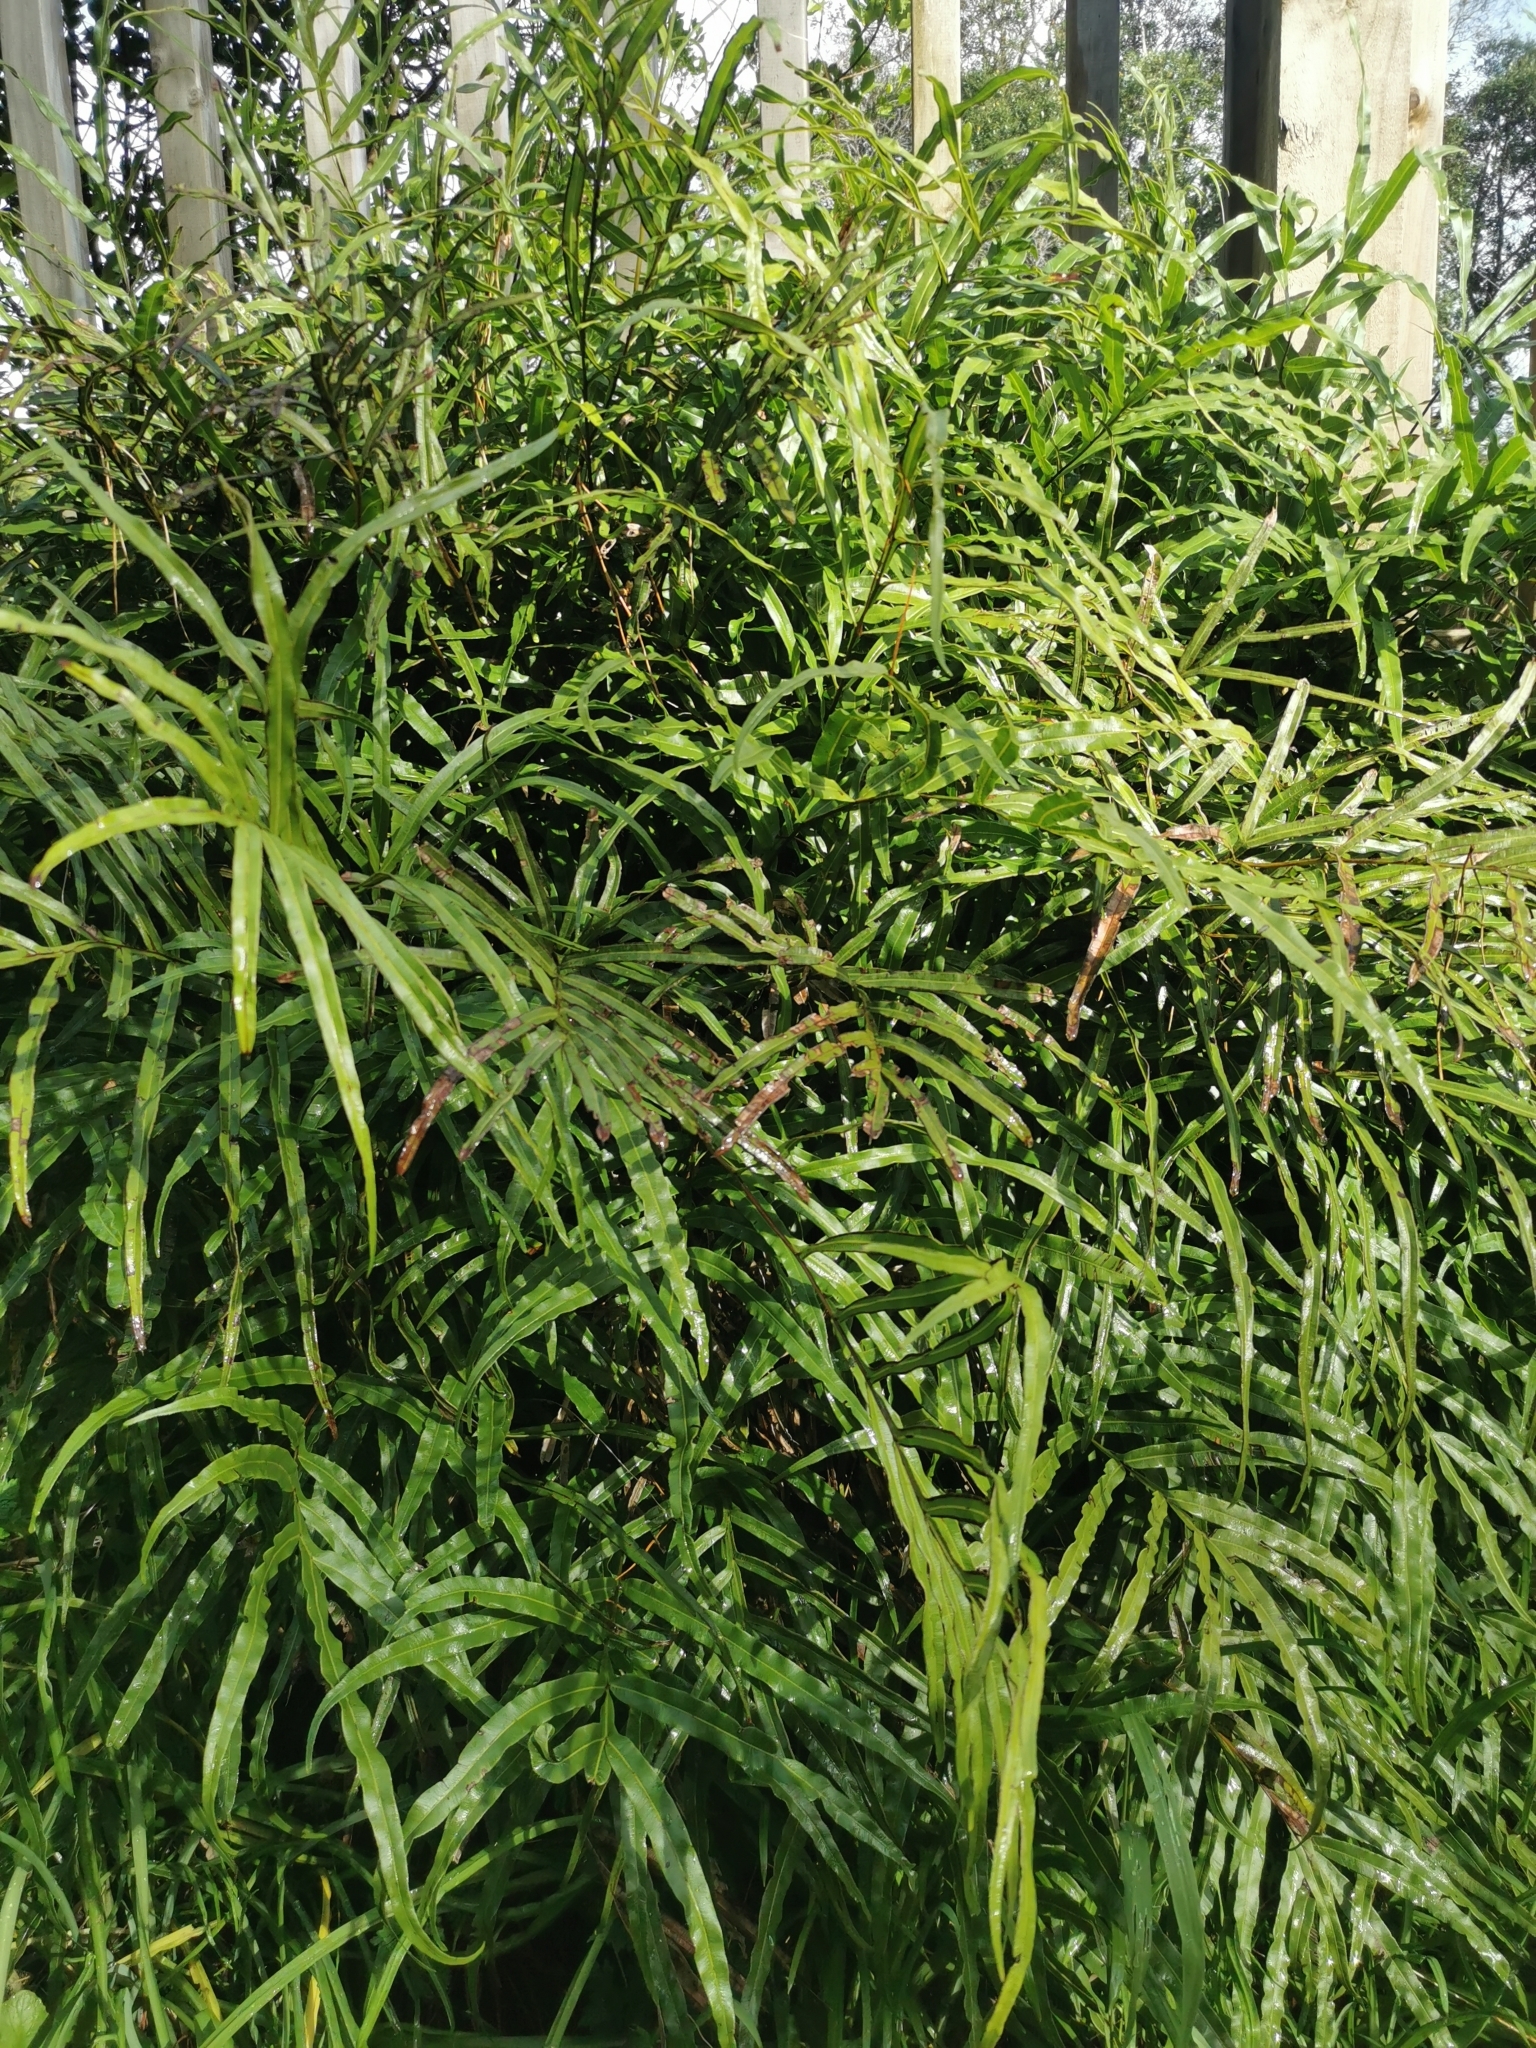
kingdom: Plantae
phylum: Tracheophyta
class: Polypodiopsida
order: Polypodiales
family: Pteridaceae
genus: Pteris
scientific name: Pteris cretica
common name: Ribbon fern
